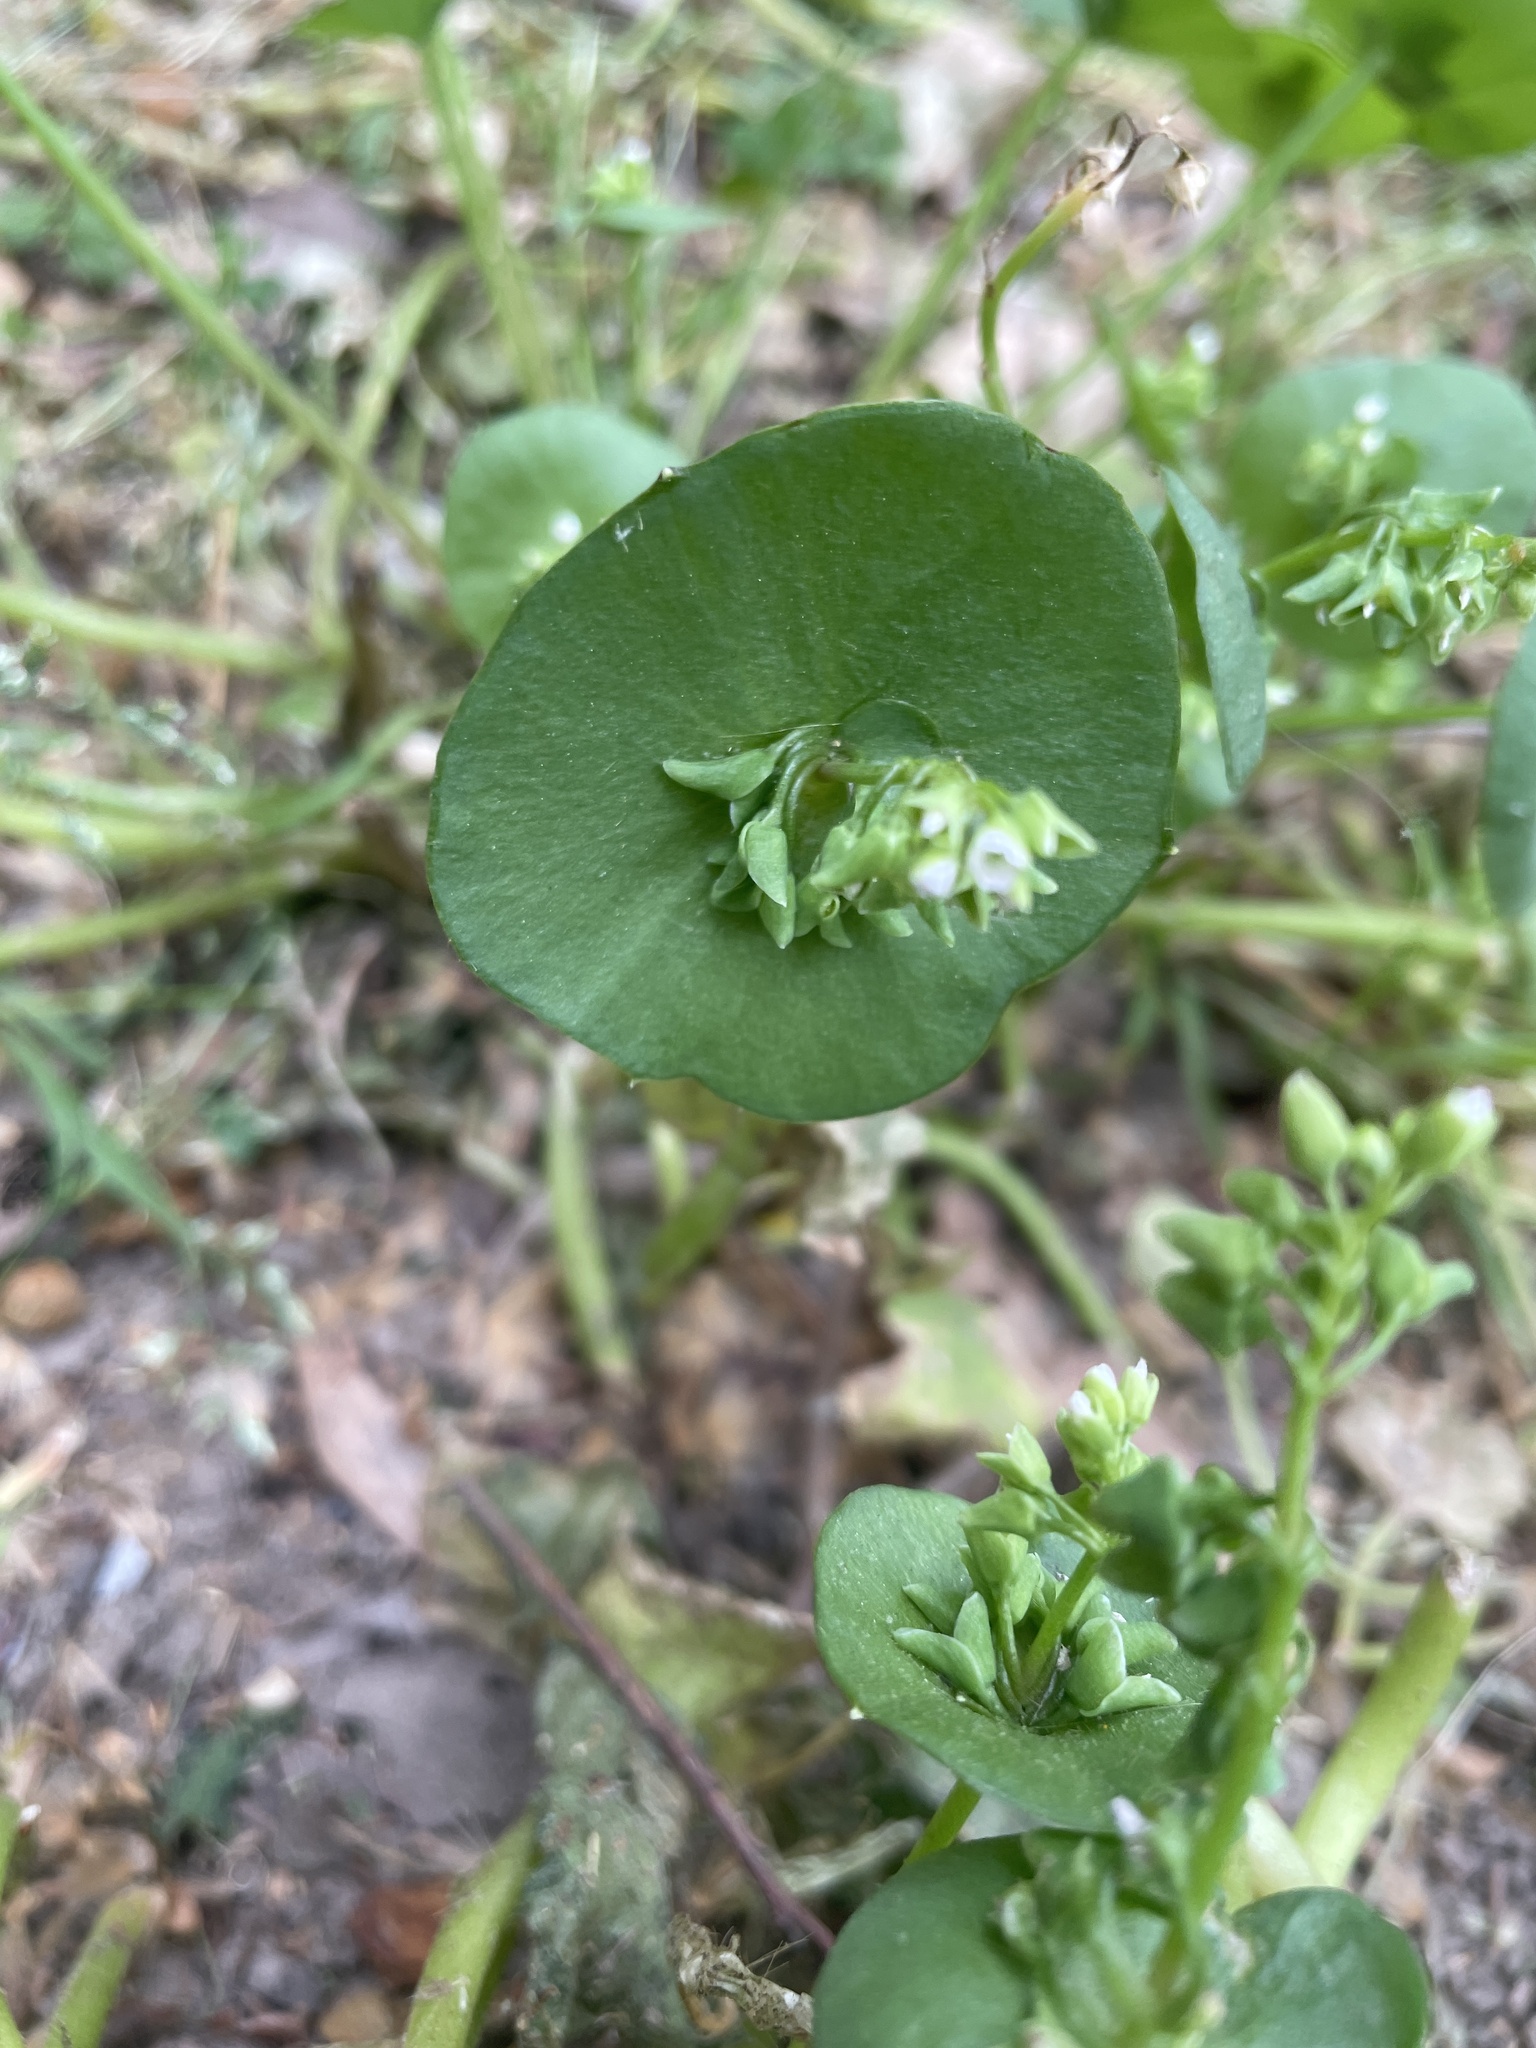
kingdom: Plantae
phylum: Tracheophyta
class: Magnoliopsida
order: Caryophyllales
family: Montiaceae
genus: Claytonia
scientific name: Claytonia perfoliata
